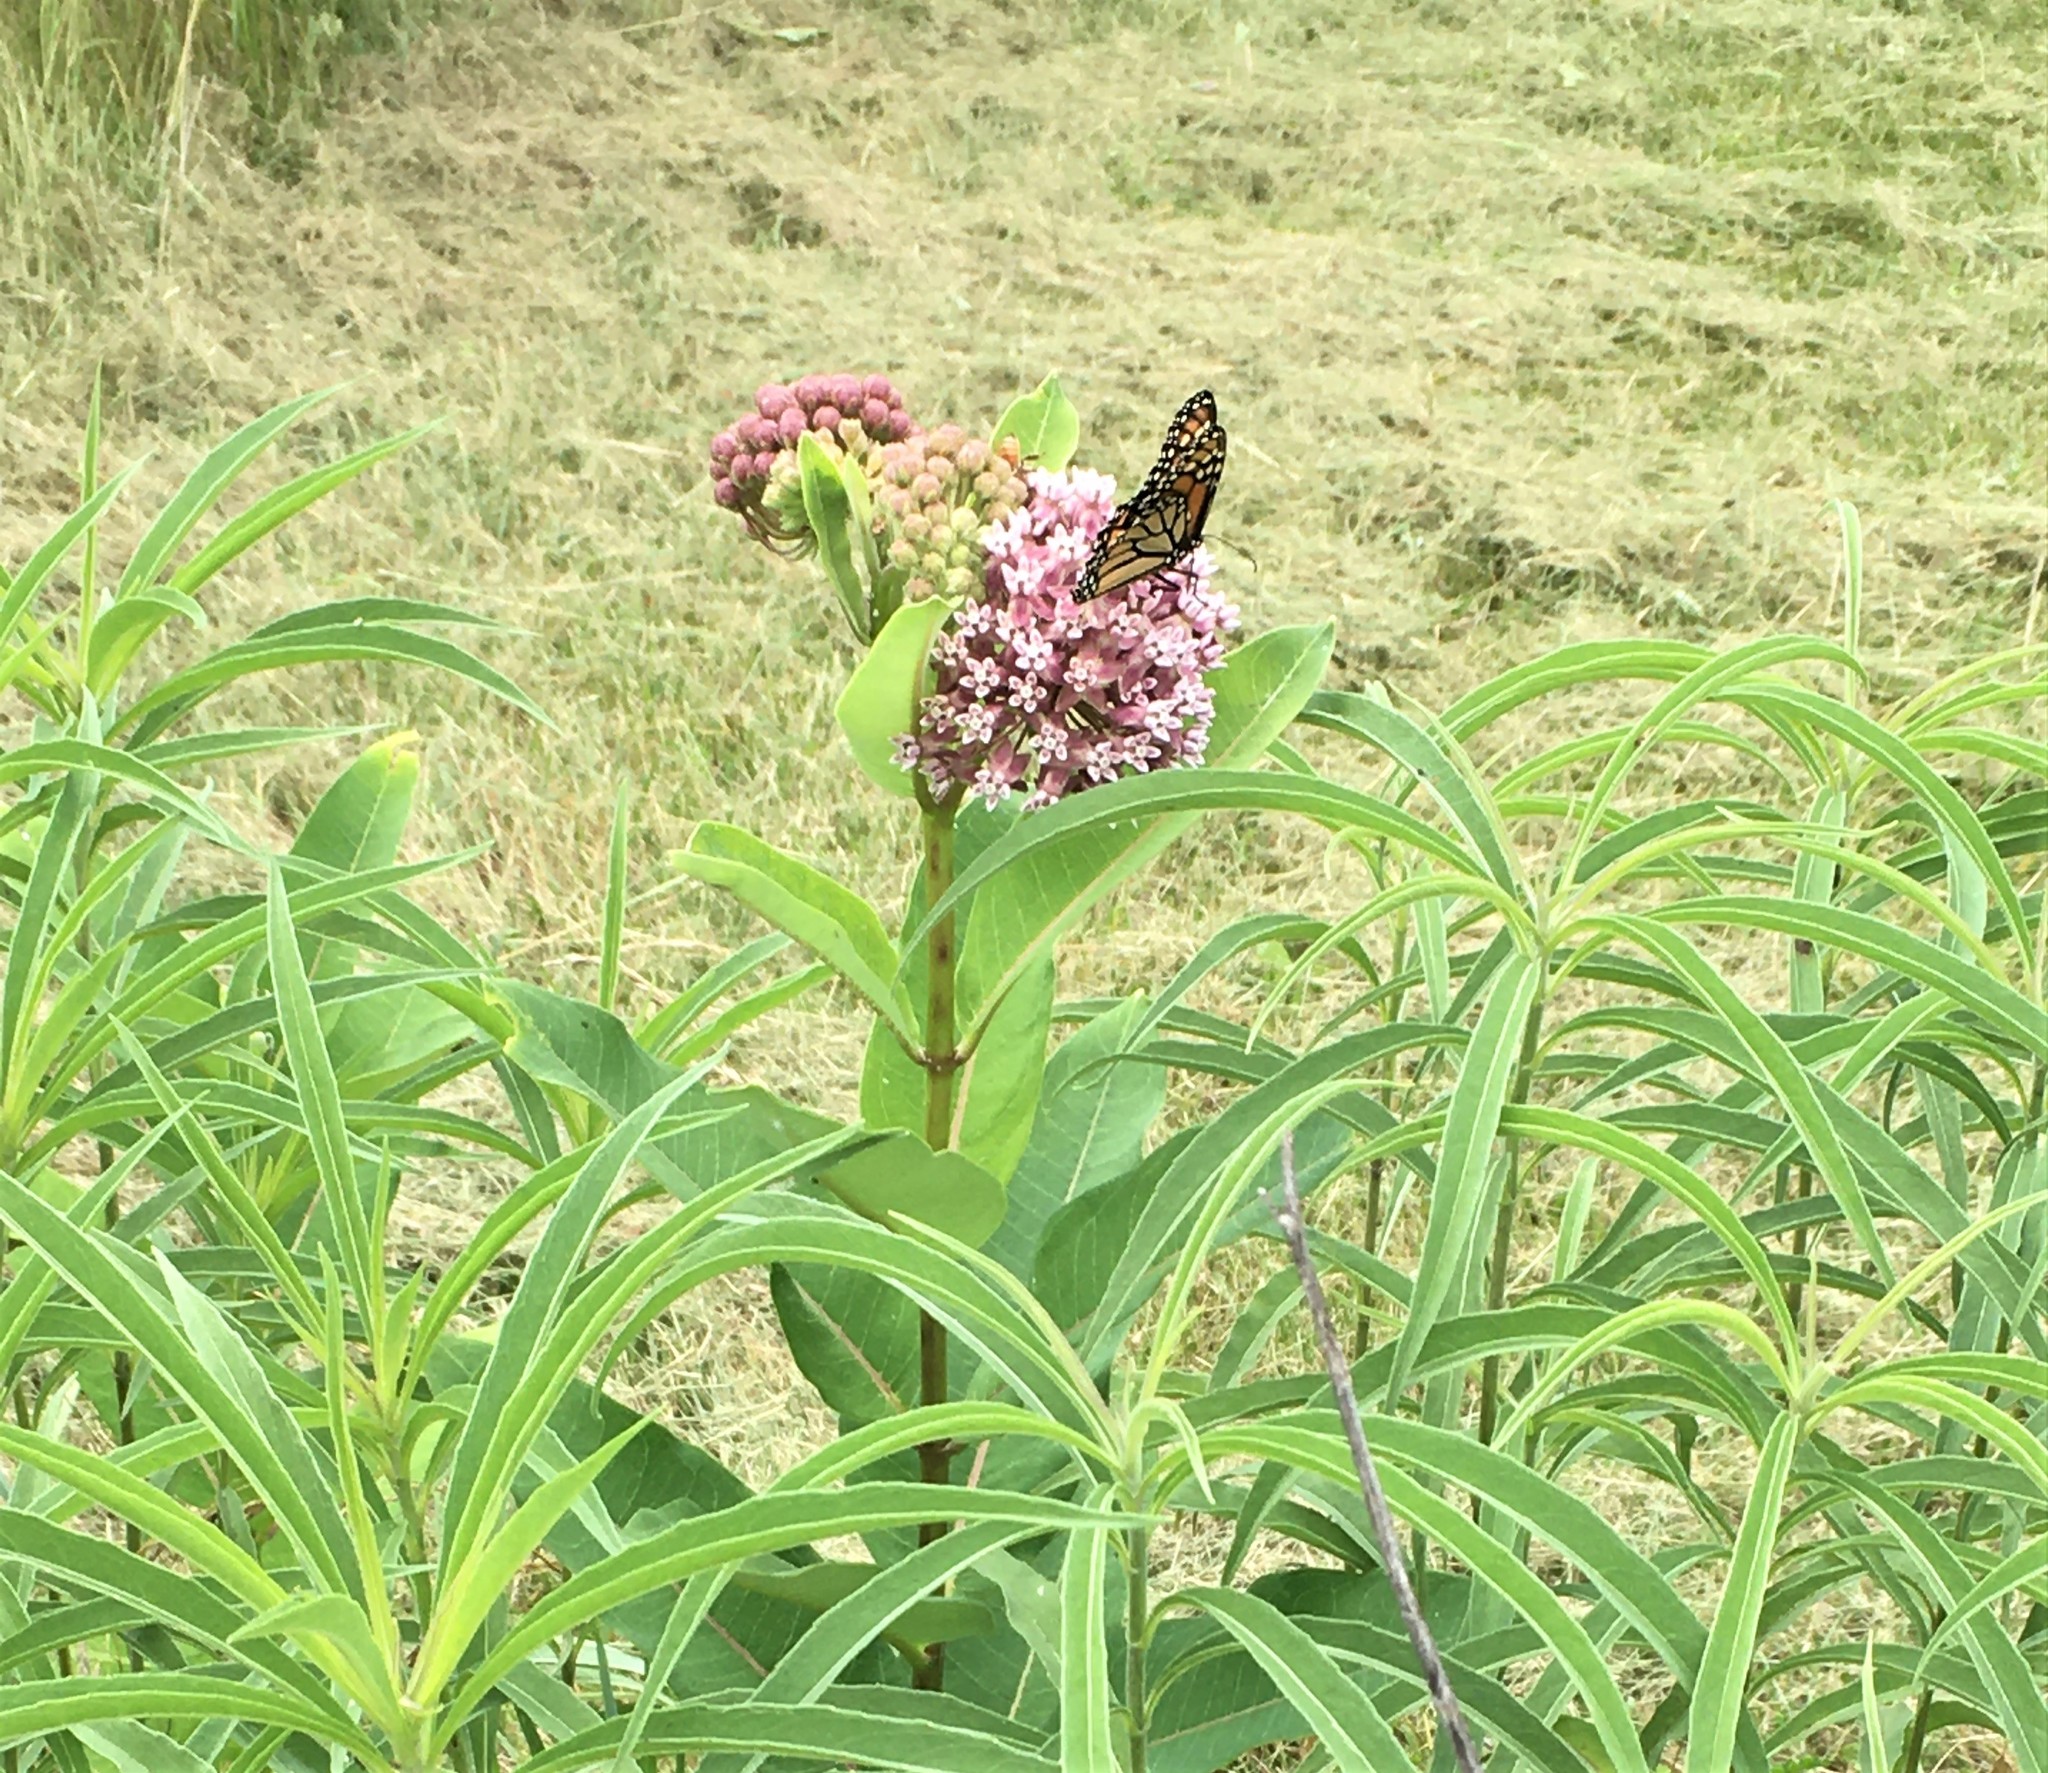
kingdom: Animalia
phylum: Arthropoda
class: Insecta
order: Lepidoptera
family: Nymphalidae
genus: Danaus
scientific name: Danaus plexippus
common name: Monarch
